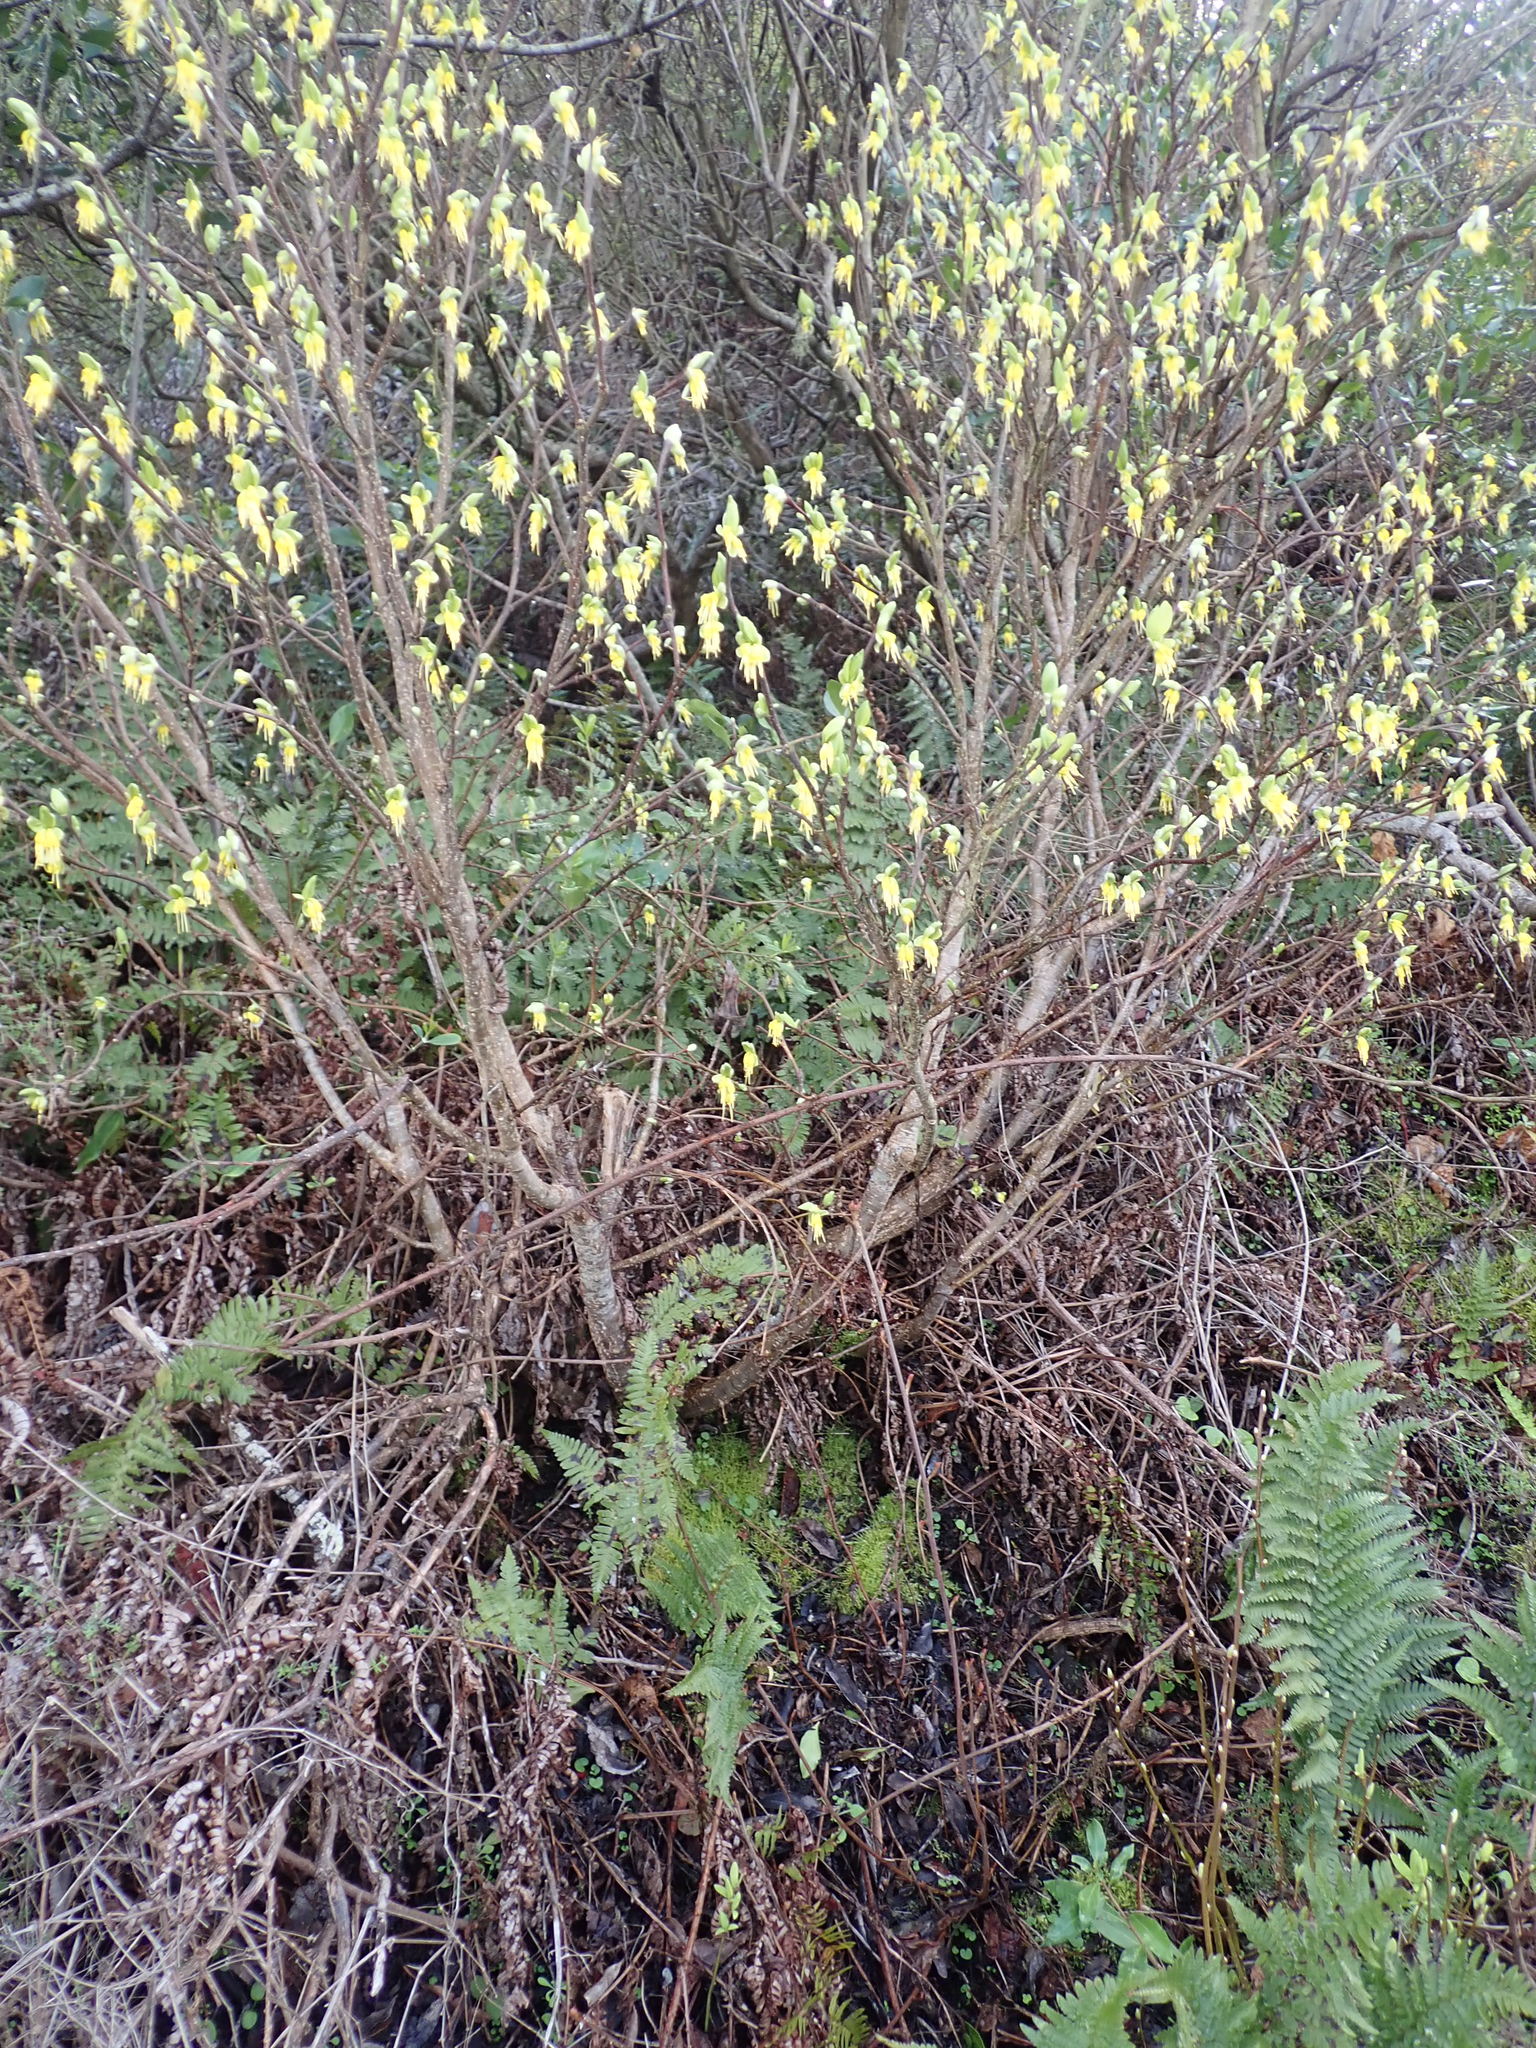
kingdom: Plantae
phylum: Tracheophyta
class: Magnoliopsida
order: Malvales
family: Thymelaeaceae
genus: Dirca
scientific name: Dirca occidentalis
